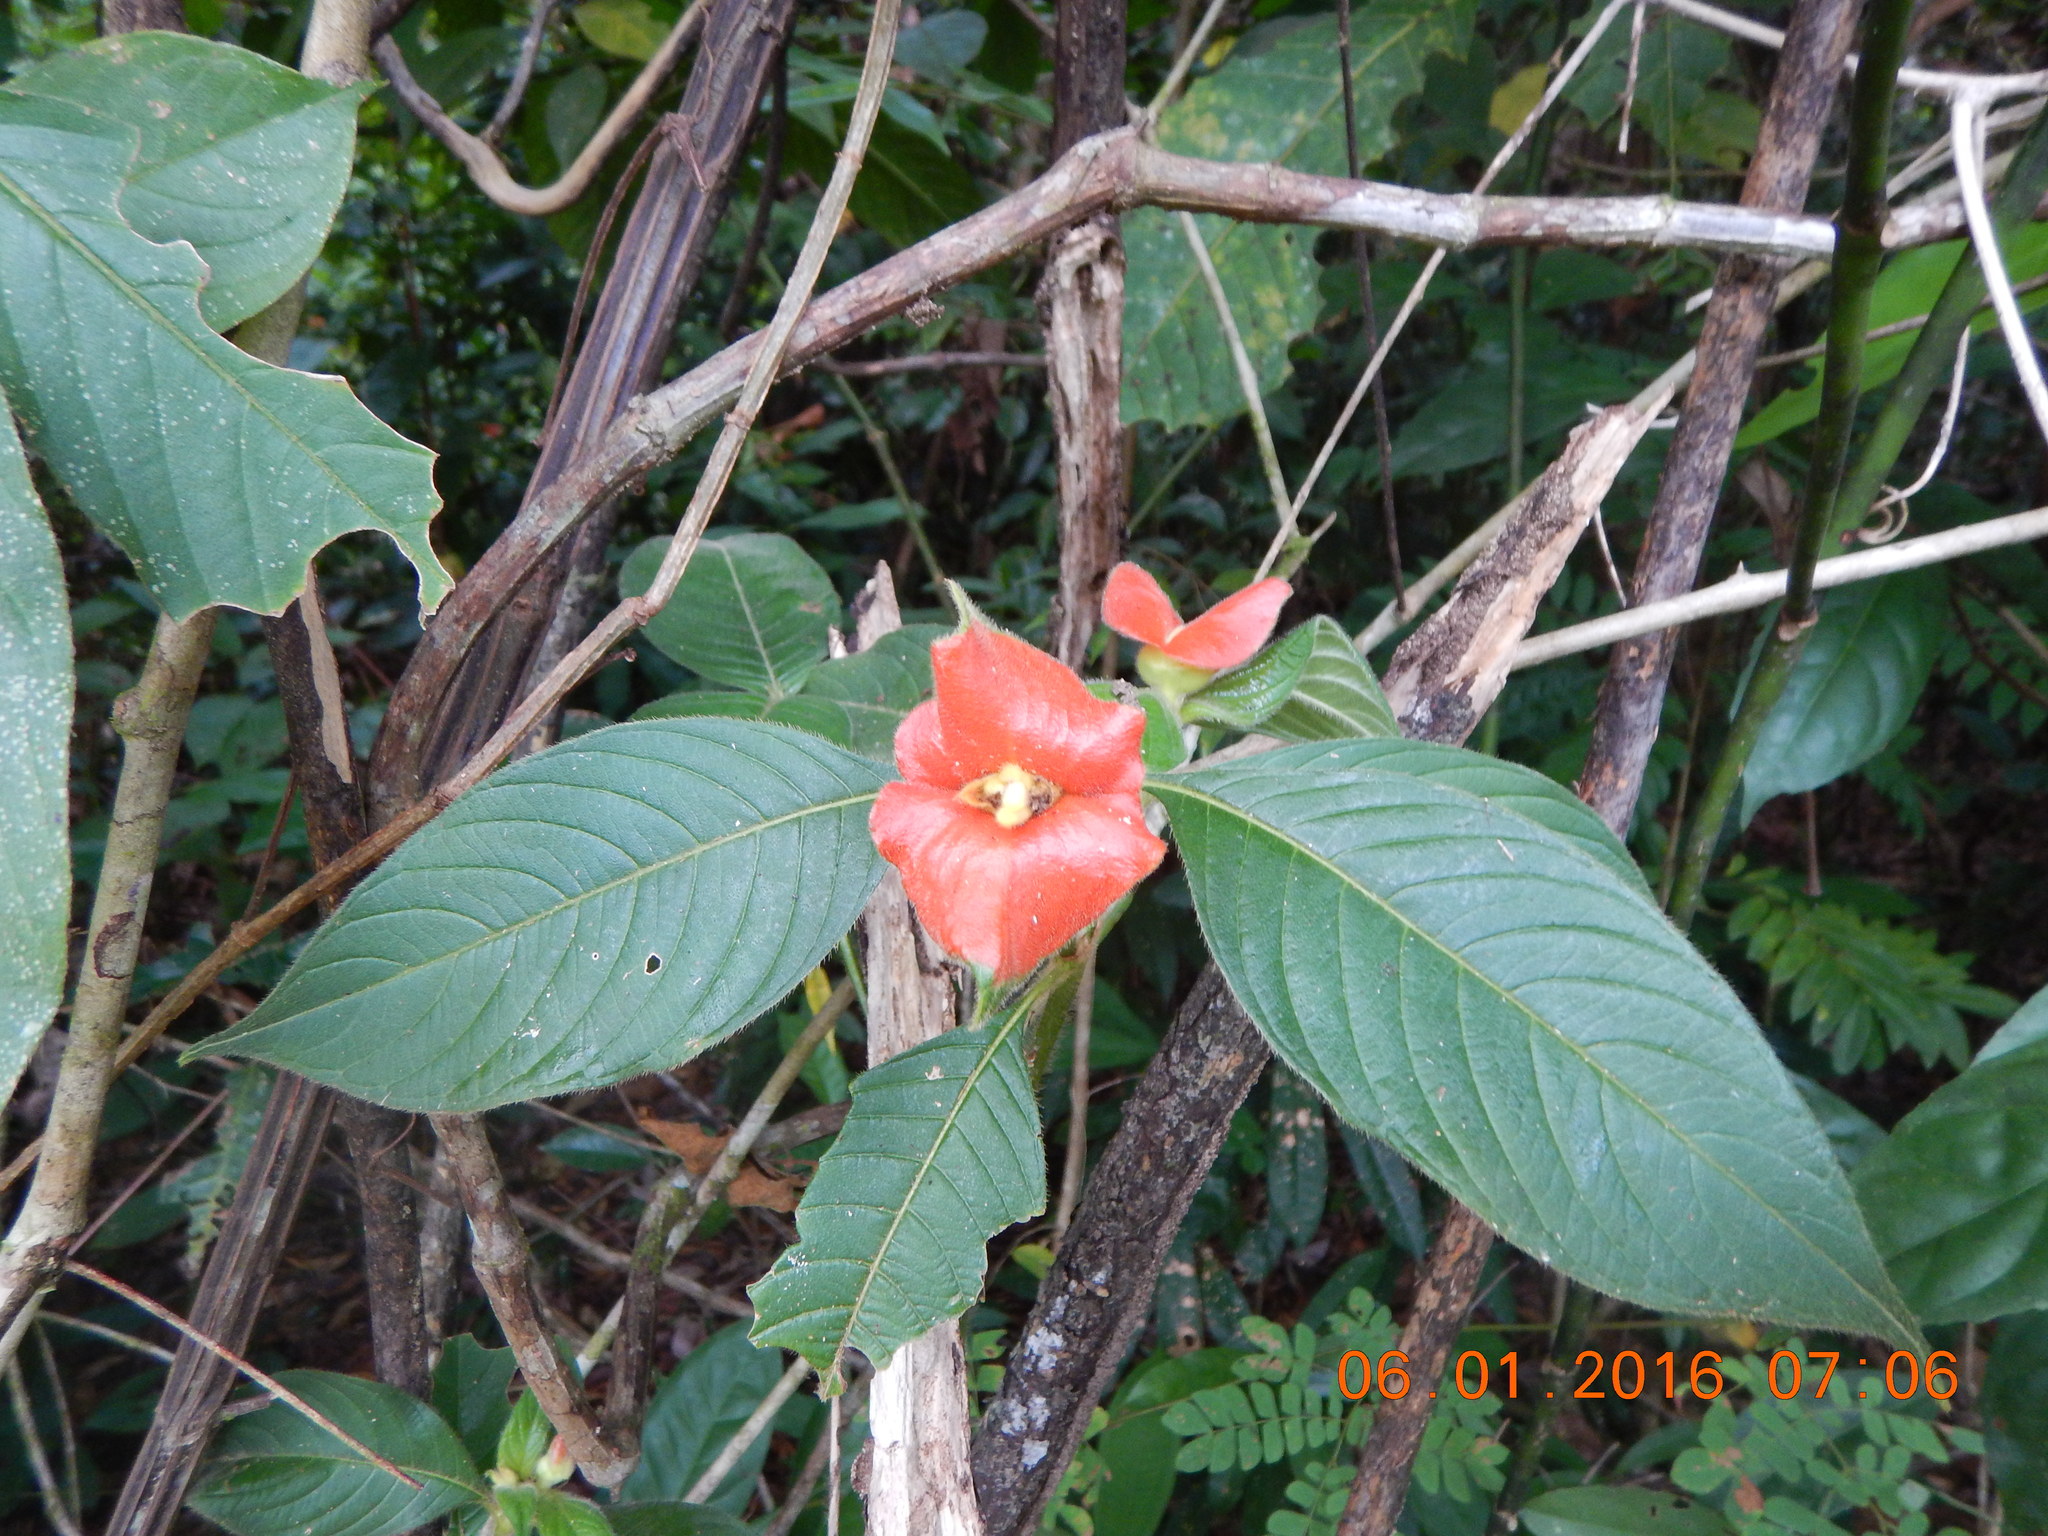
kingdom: Plantae
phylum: Tracheophyta
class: Magnoliopsida
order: Gentianales
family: Rubiaceae
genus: Palicourea
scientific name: Palicourea tomentosa
